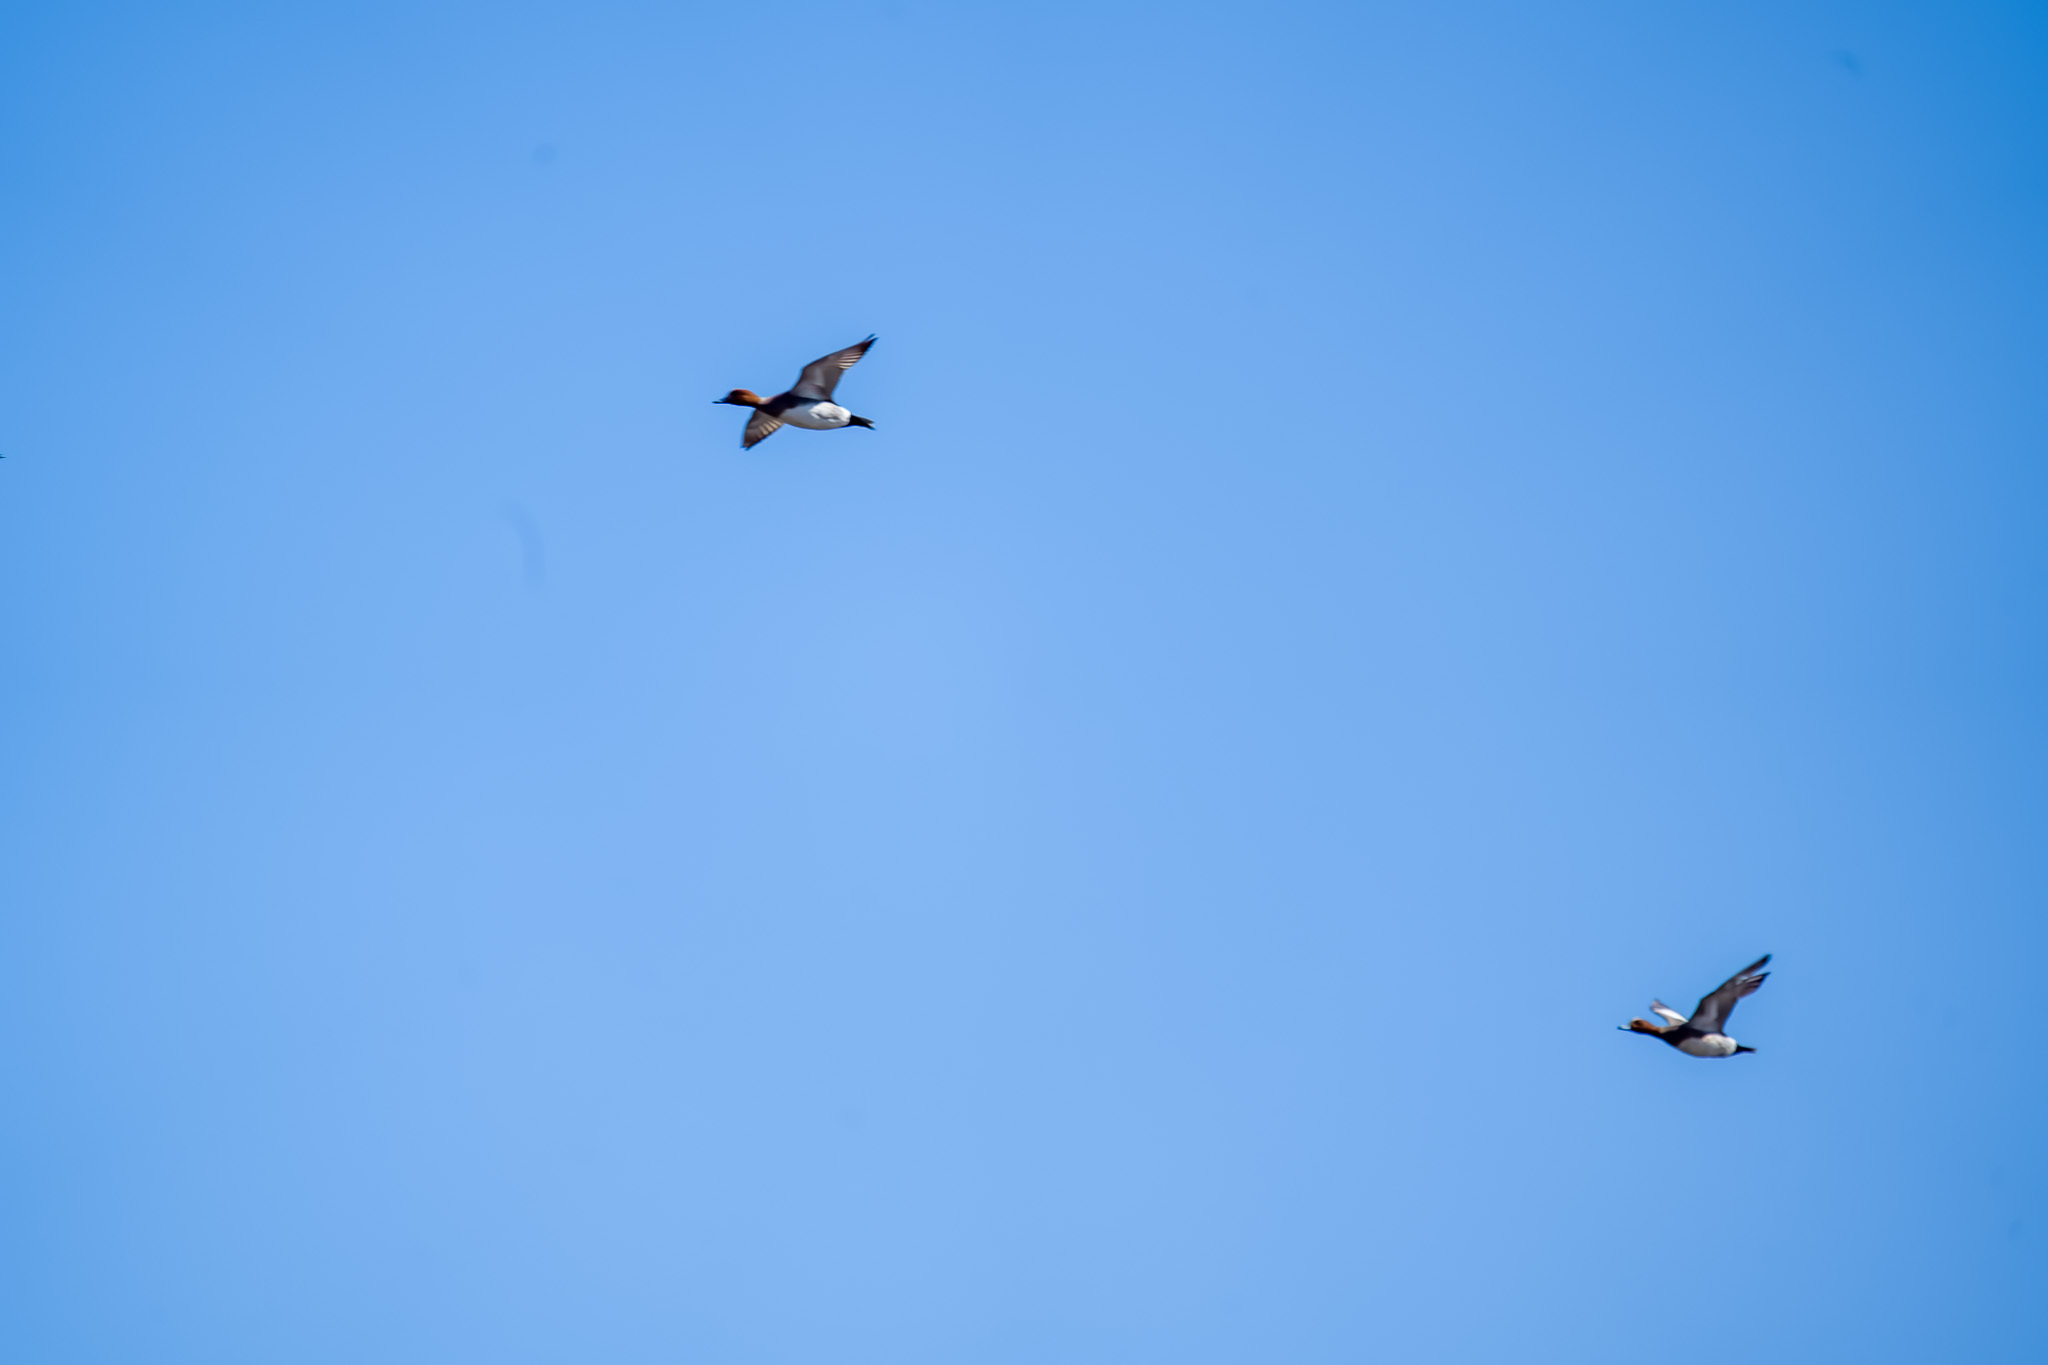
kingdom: Animalia
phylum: Chordata
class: Aves
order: Anseriformes
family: Anatidae
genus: Mareca
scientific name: Mareca penelope
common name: Eurasian wigeon
